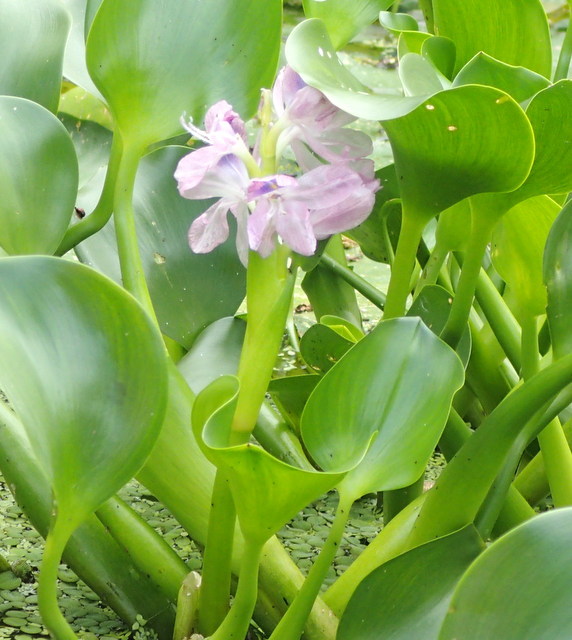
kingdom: Plantae
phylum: Tracheophyta
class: Liliopsida
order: Commelinales
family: Pontederiaceae
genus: Pontederia
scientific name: Pontederia crassipes
